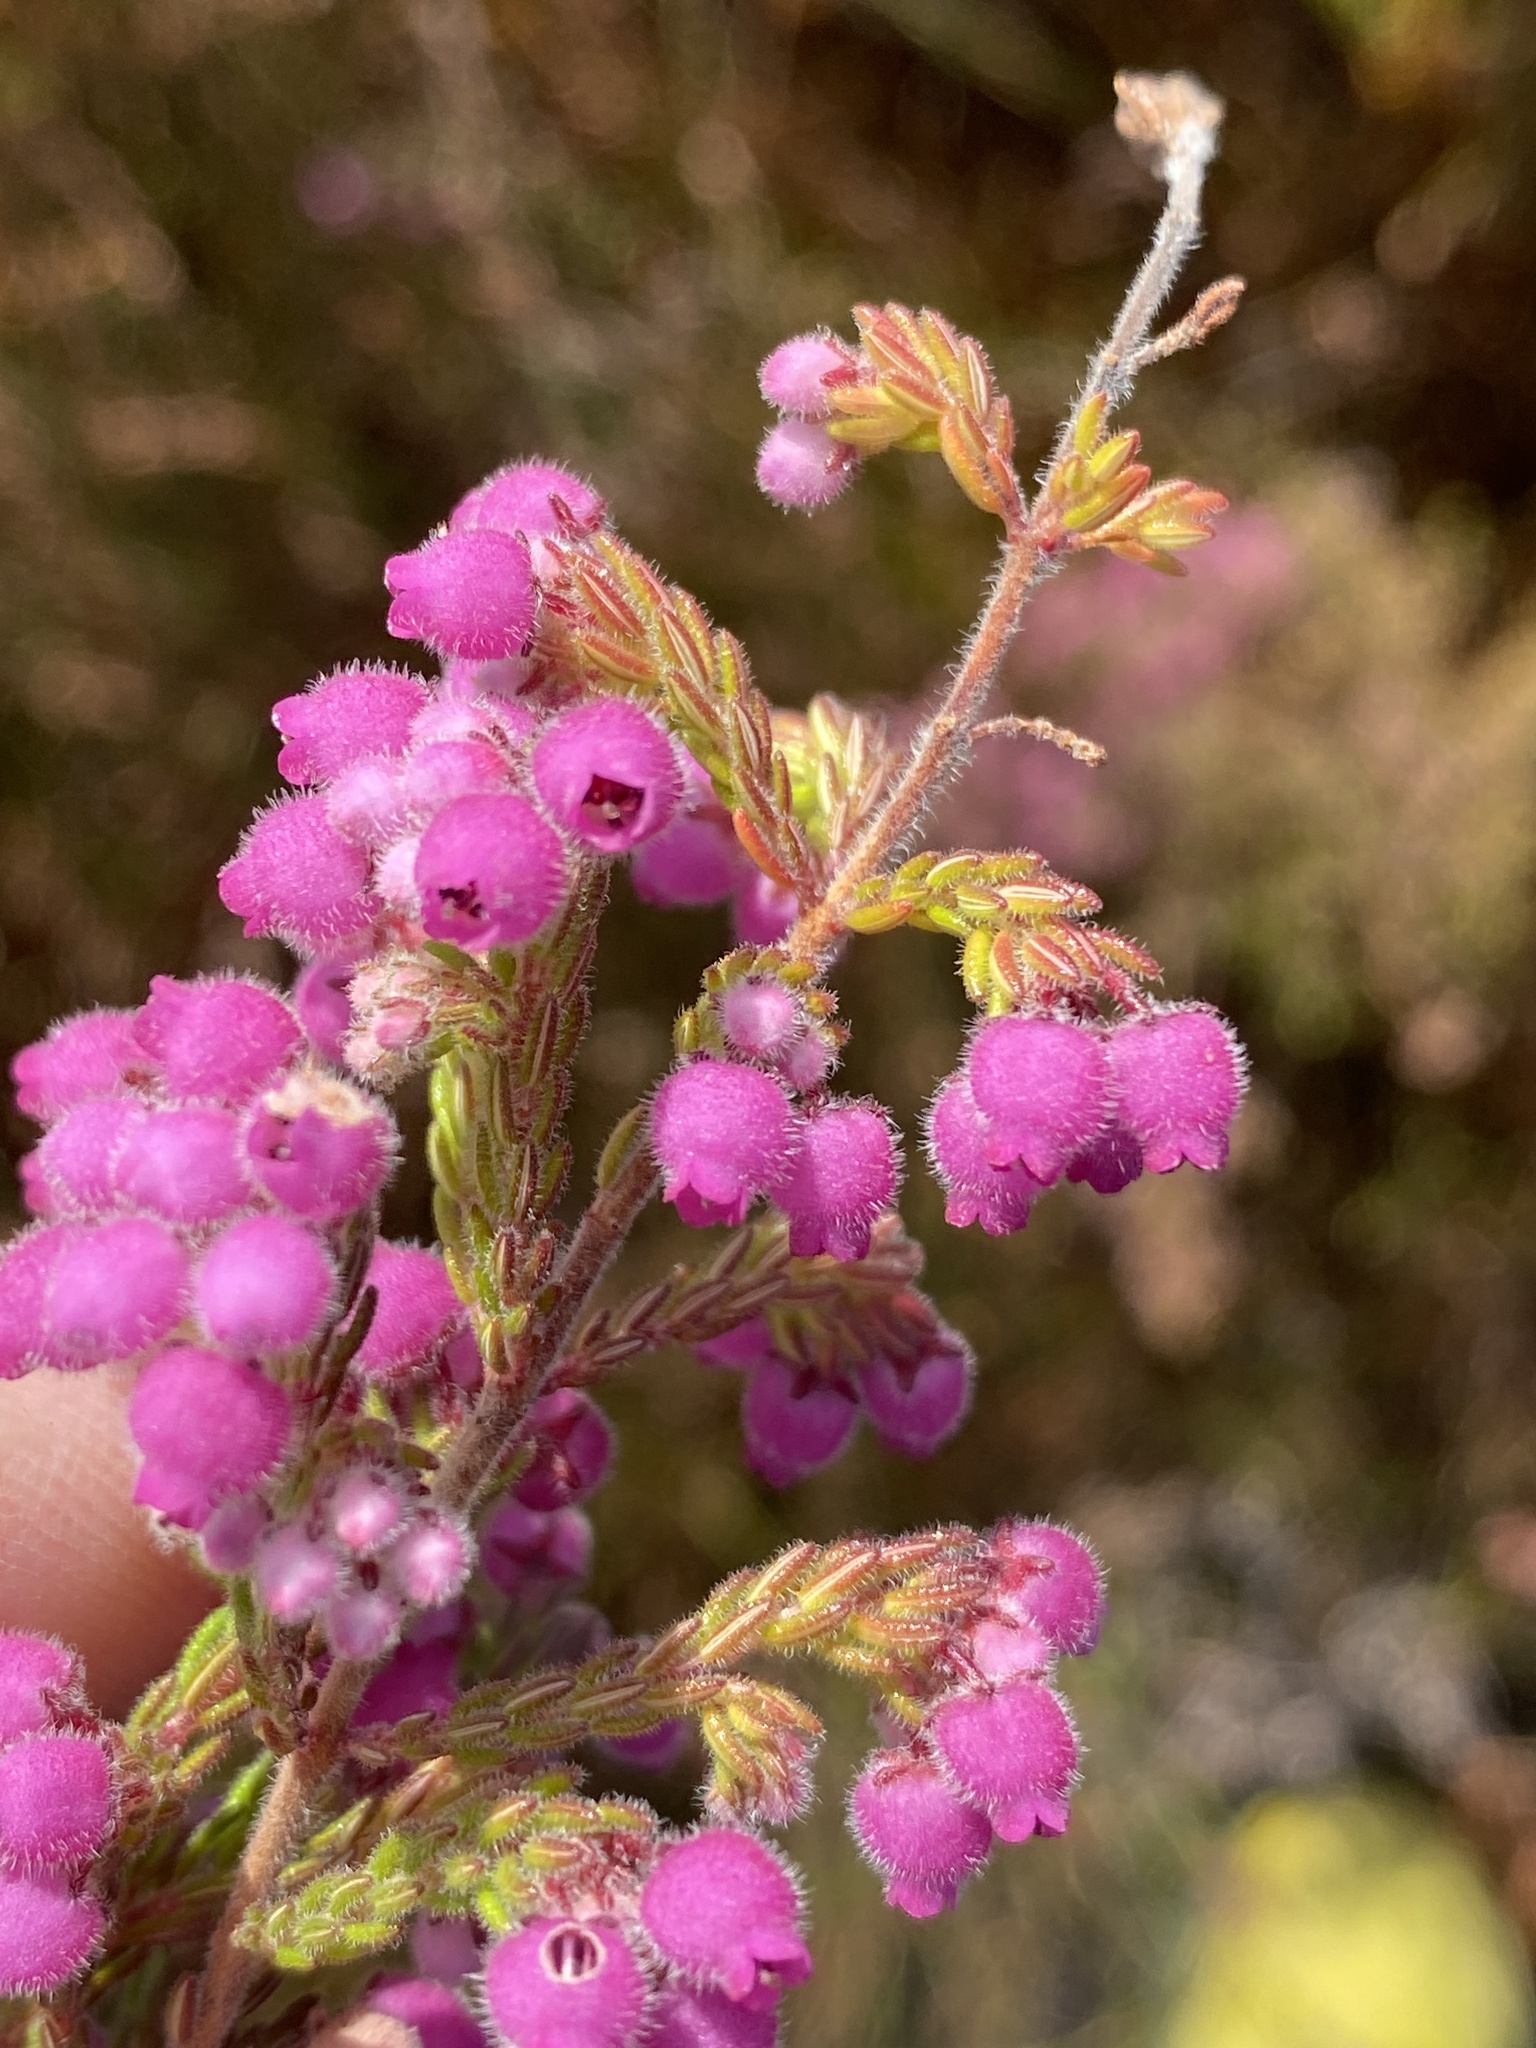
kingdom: Plantae
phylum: Tracheophyta
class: Magnoliopsida
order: Ericales
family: Ericaceae
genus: Erica
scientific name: Erica hirtiflora
